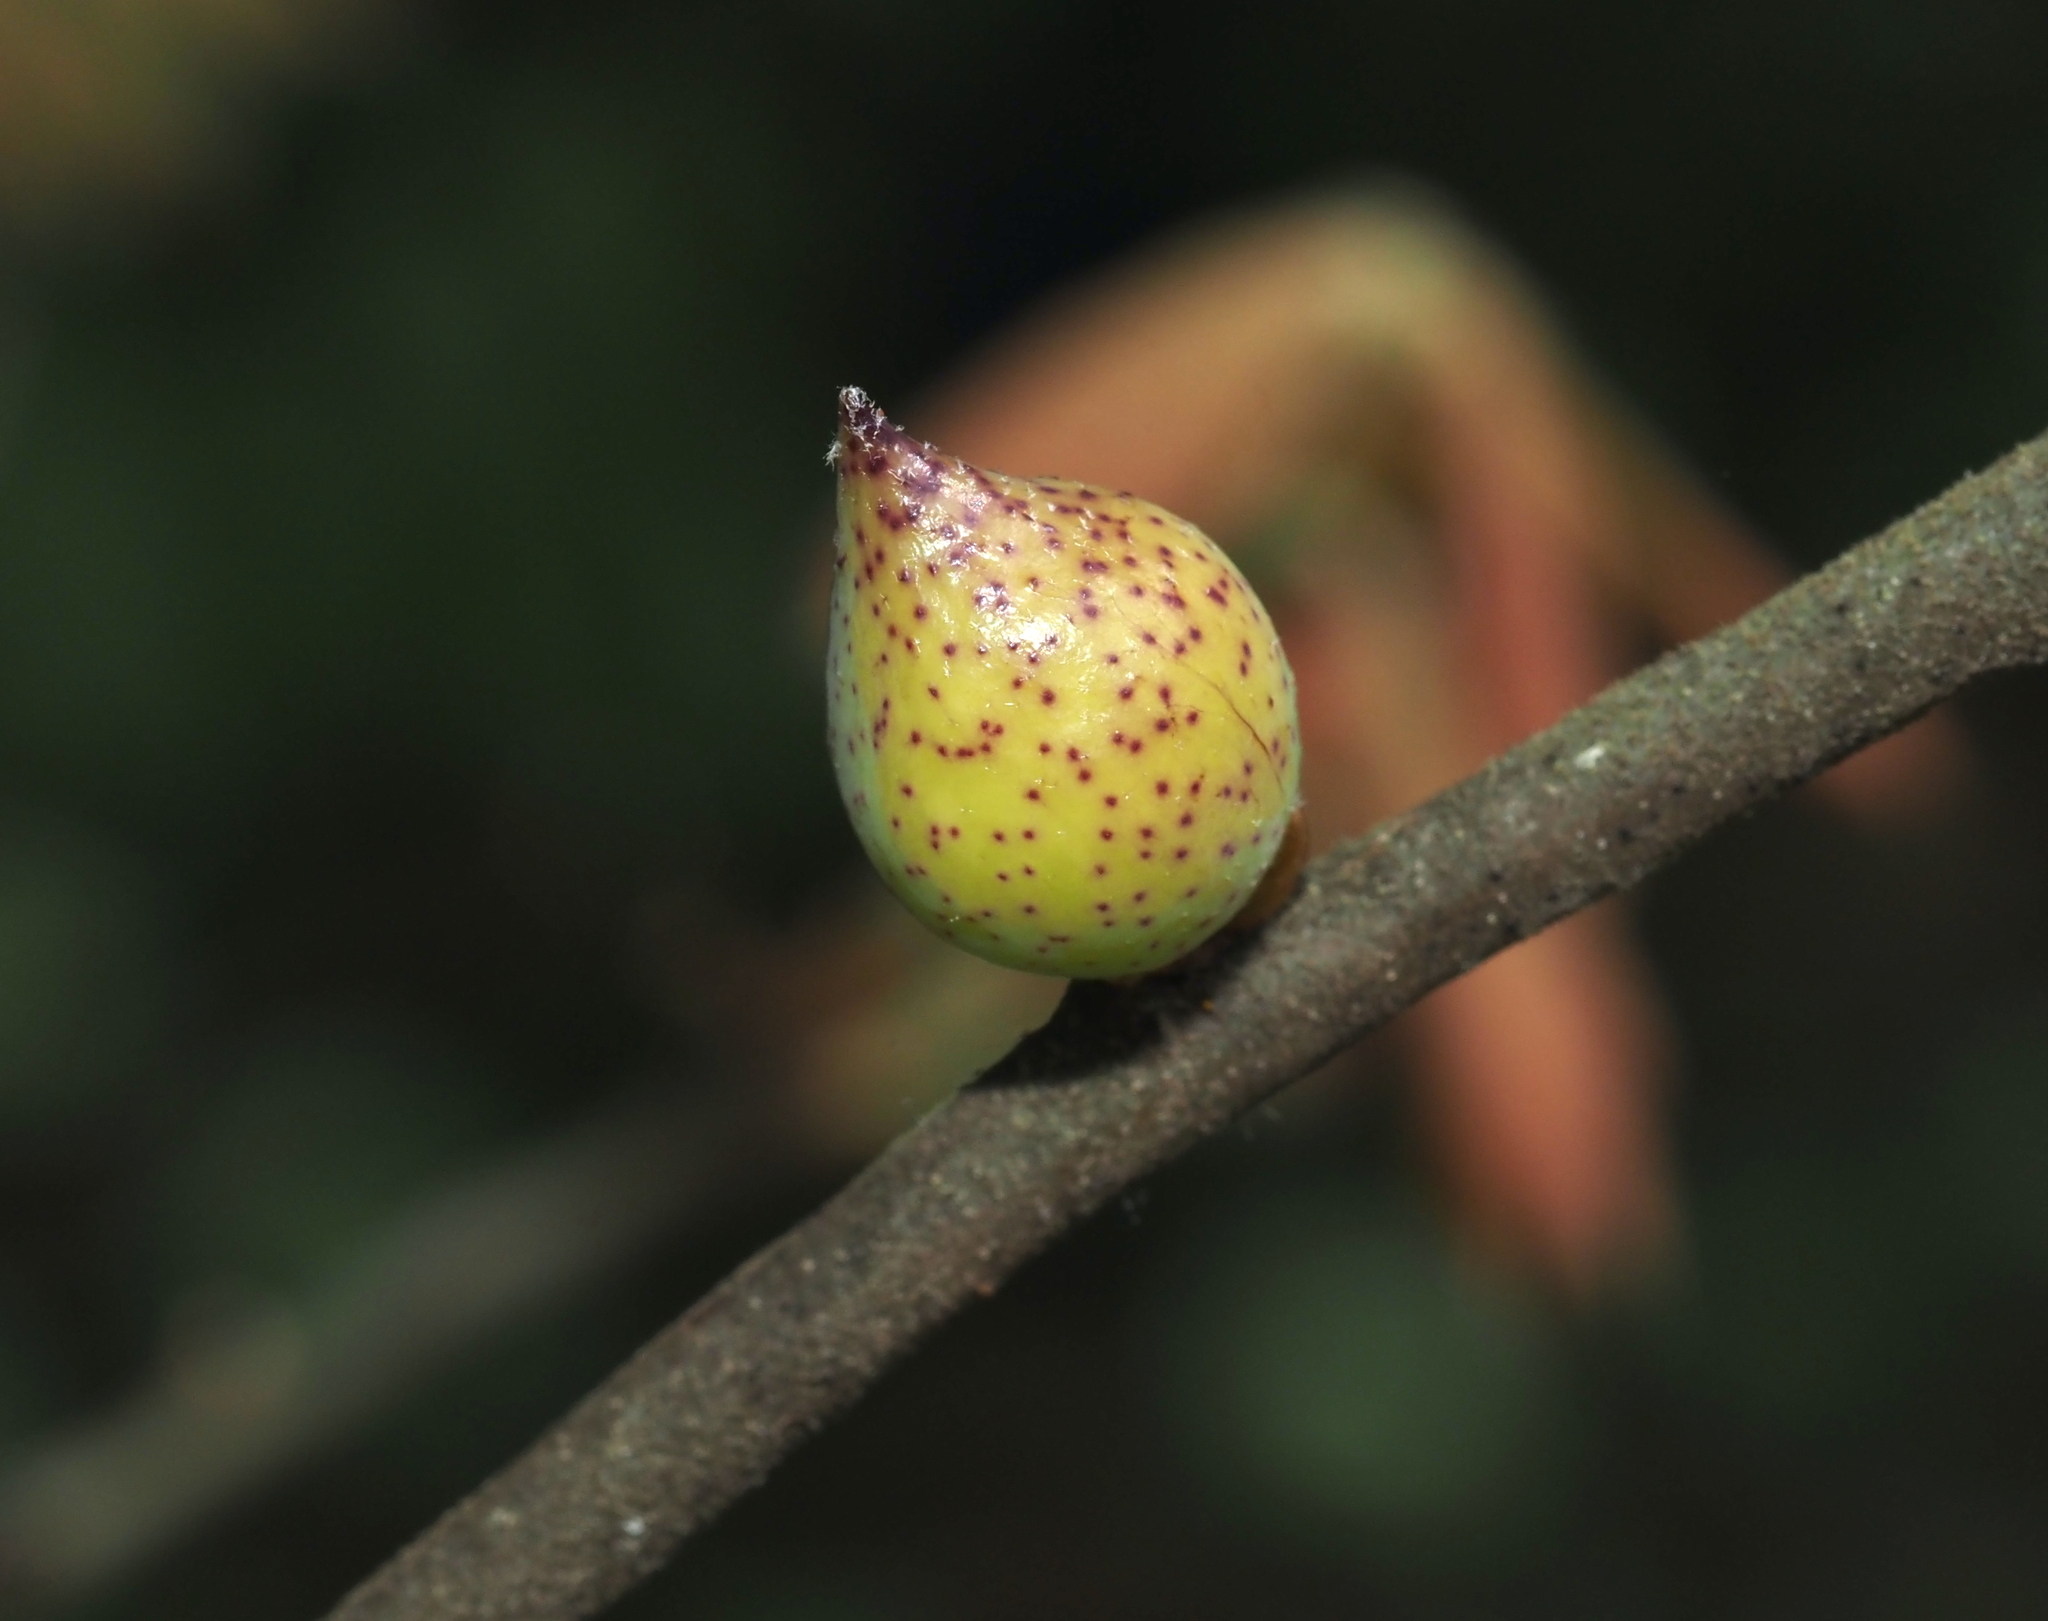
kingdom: Animalia
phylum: Arthropoda
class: Insecta
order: Hymenoptera
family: Cynipidae
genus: Amphibolips
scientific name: Amphibolips
